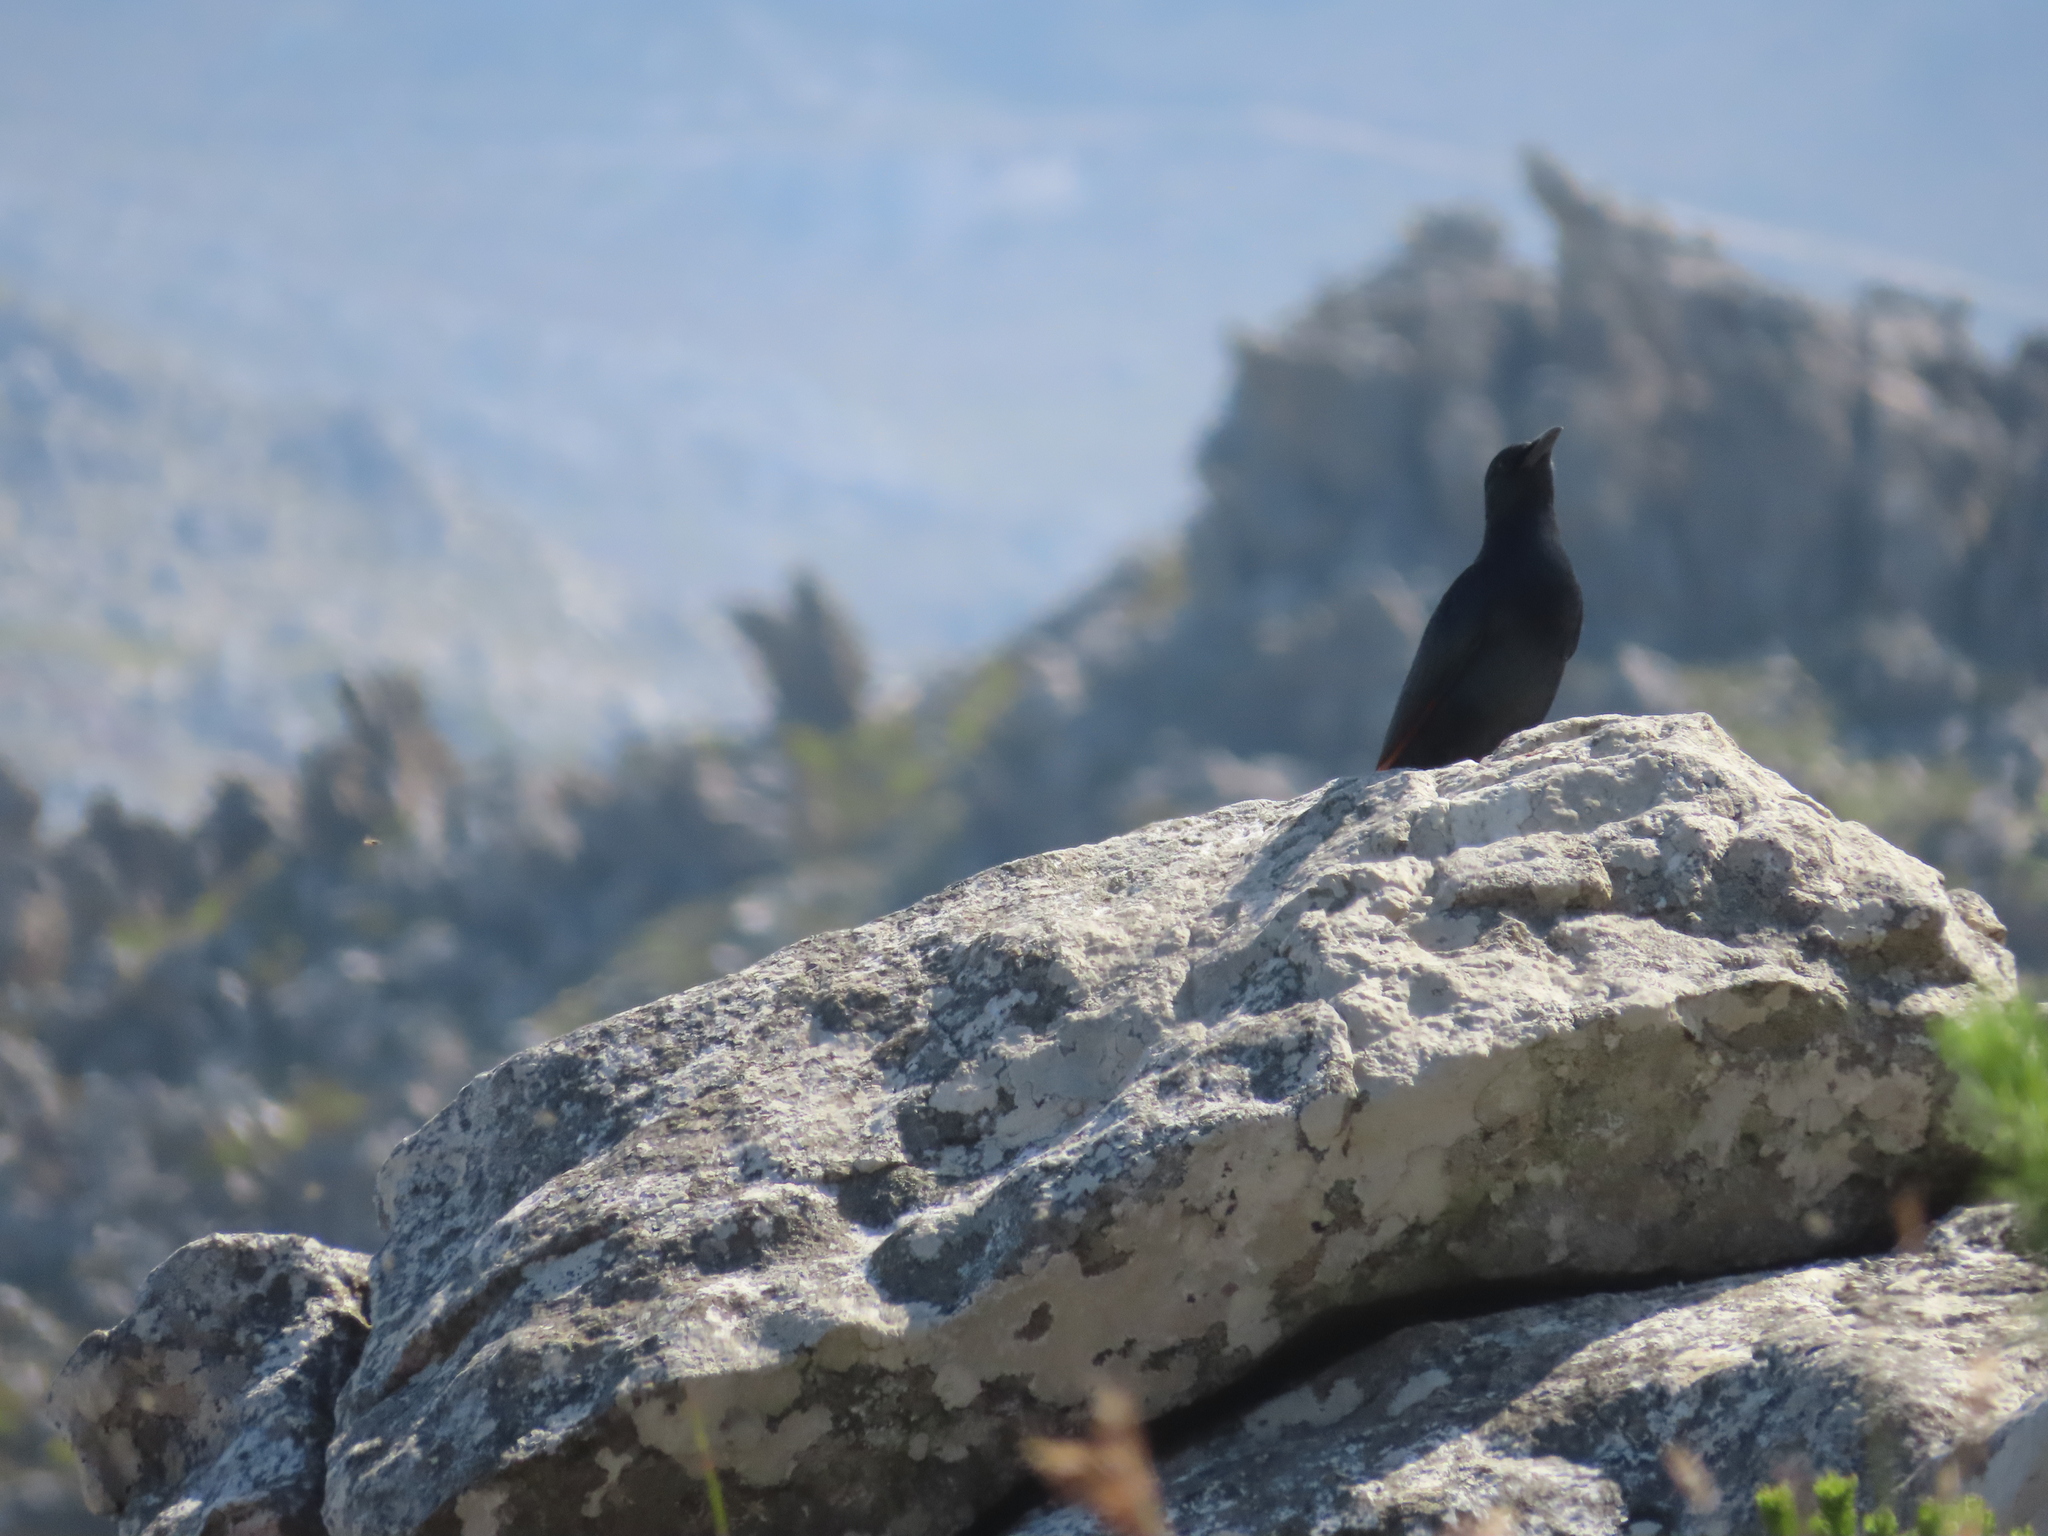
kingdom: Animalia
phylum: Chordata
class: Aves
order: Passeriformes
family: Sturnidae
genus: Onychognathus
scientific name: Onychognathus morio
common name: Red-winged starling
